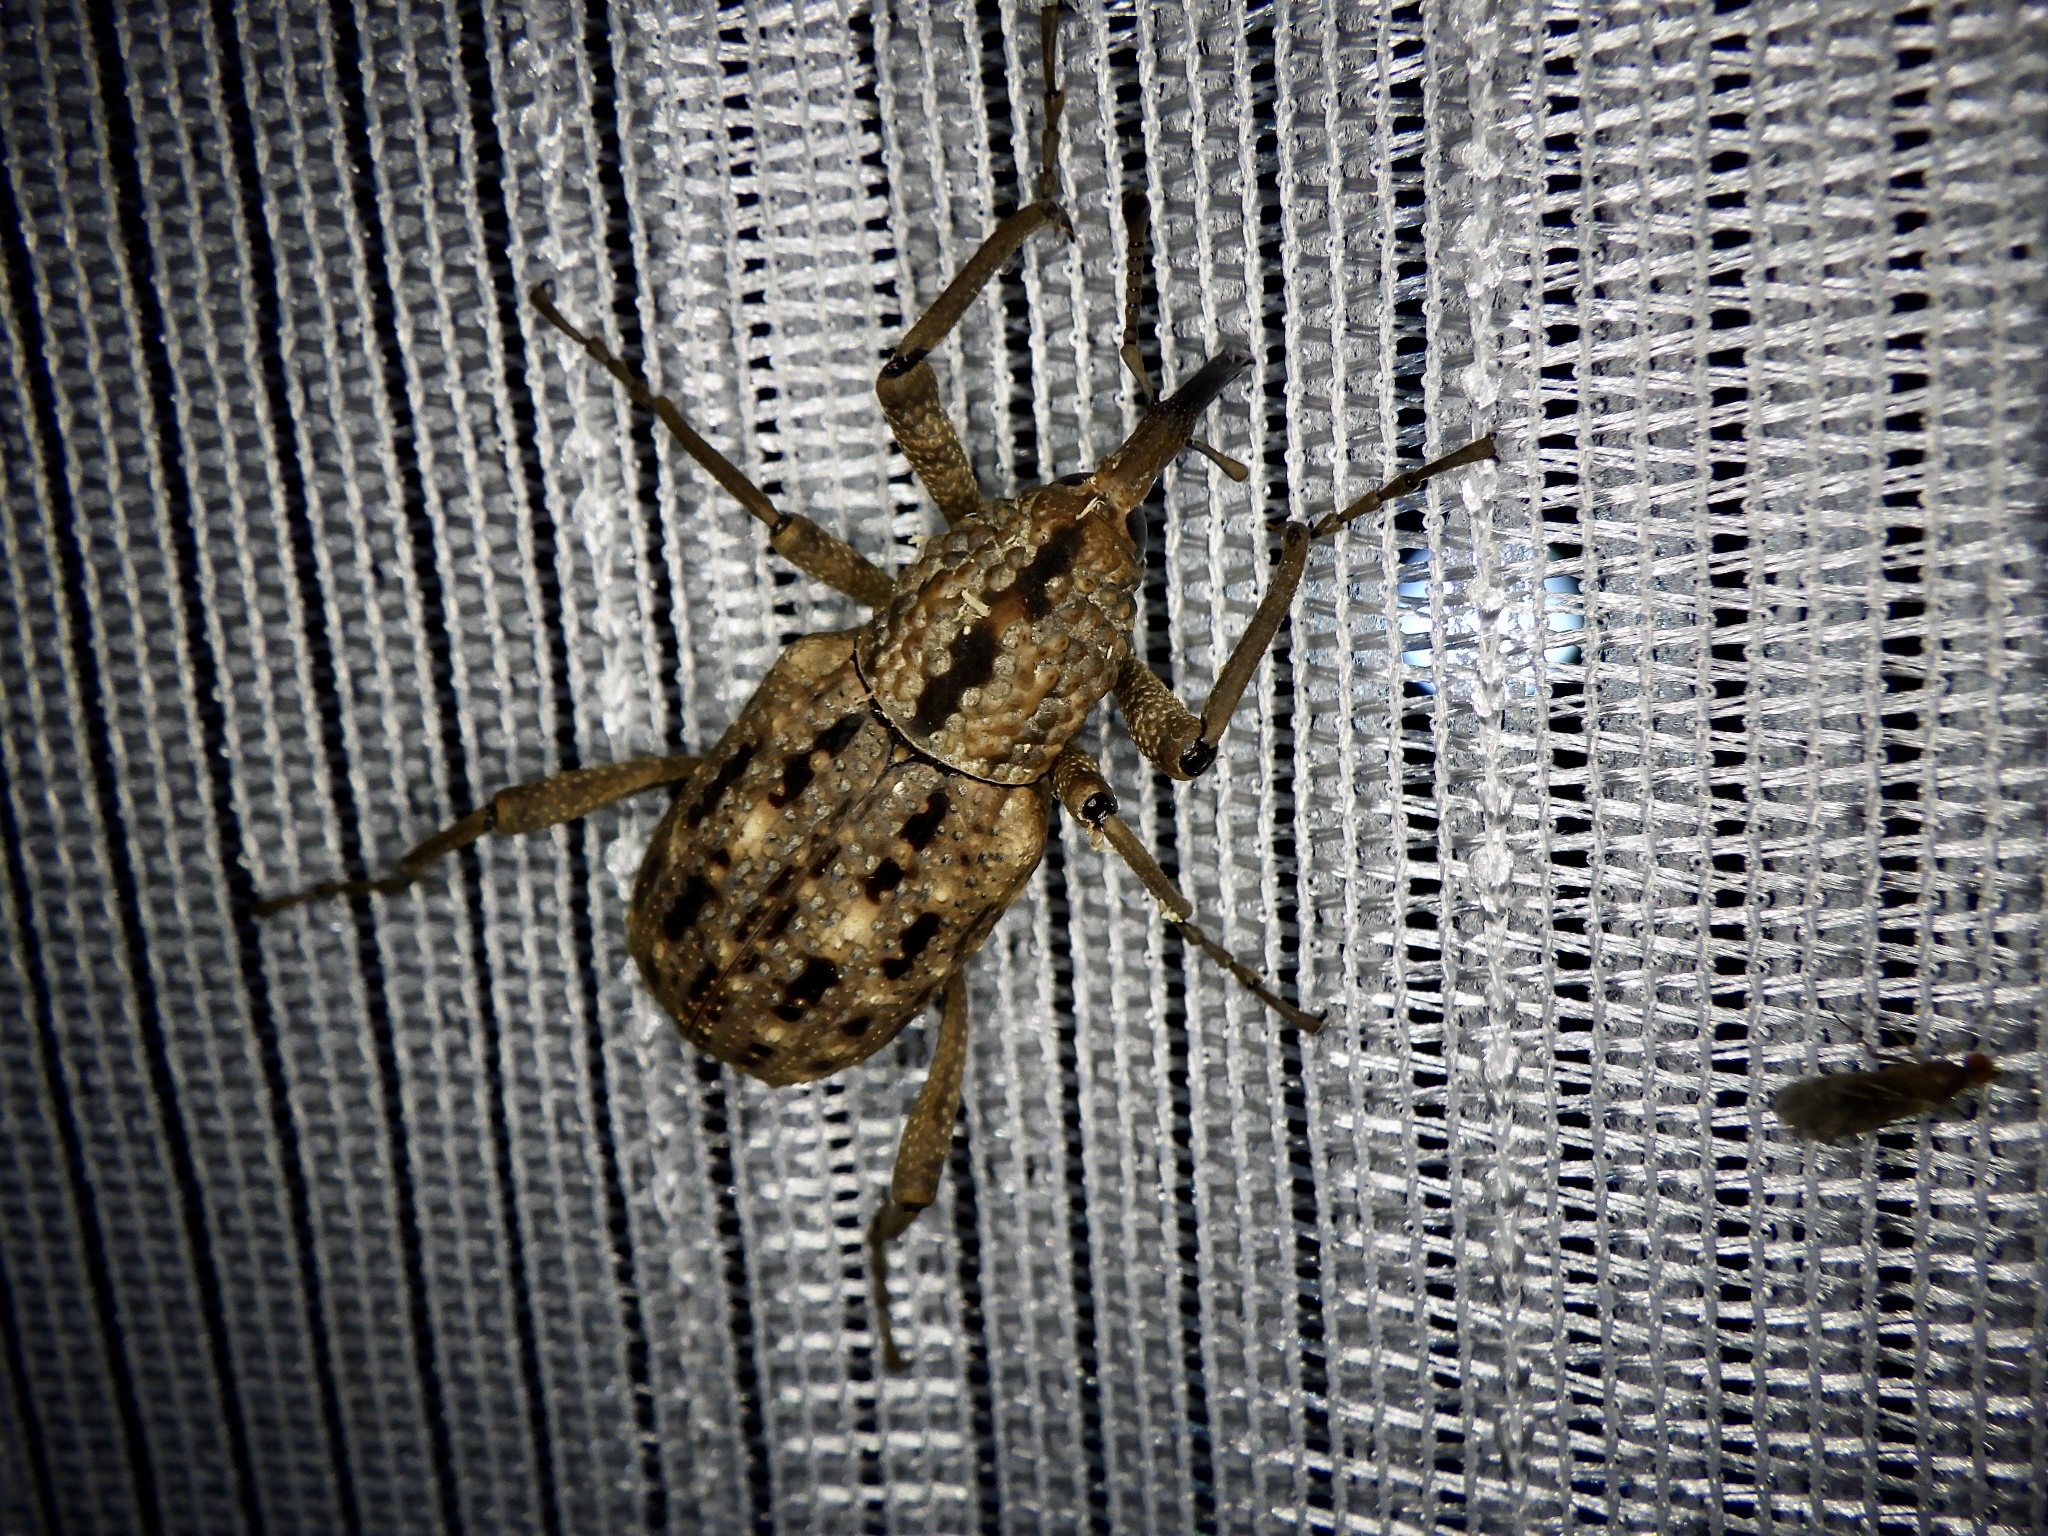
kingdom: Animalia
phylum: Arthropoda
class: Insecta
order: Coleoptera
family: Dryophthoridae
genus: Sipalinus
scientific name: Sipalinus gigas
